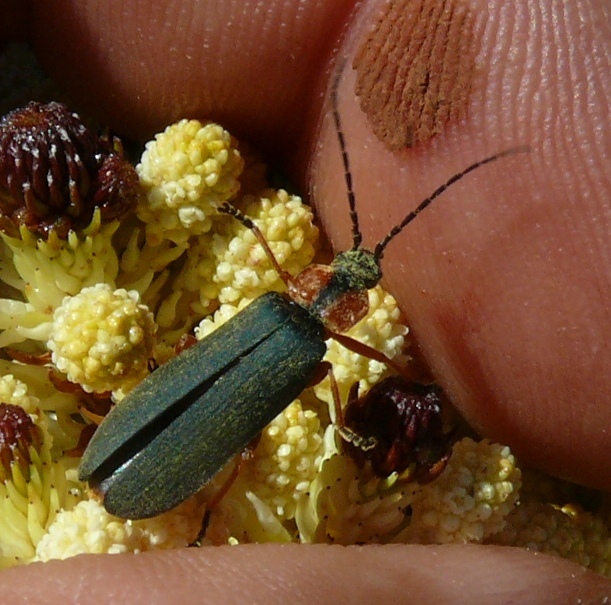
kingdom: Animalia
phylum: Arthropoda
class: Insecta
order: Coleoptera
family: Cantharidae
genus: Afronycha
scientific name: Afronycha
